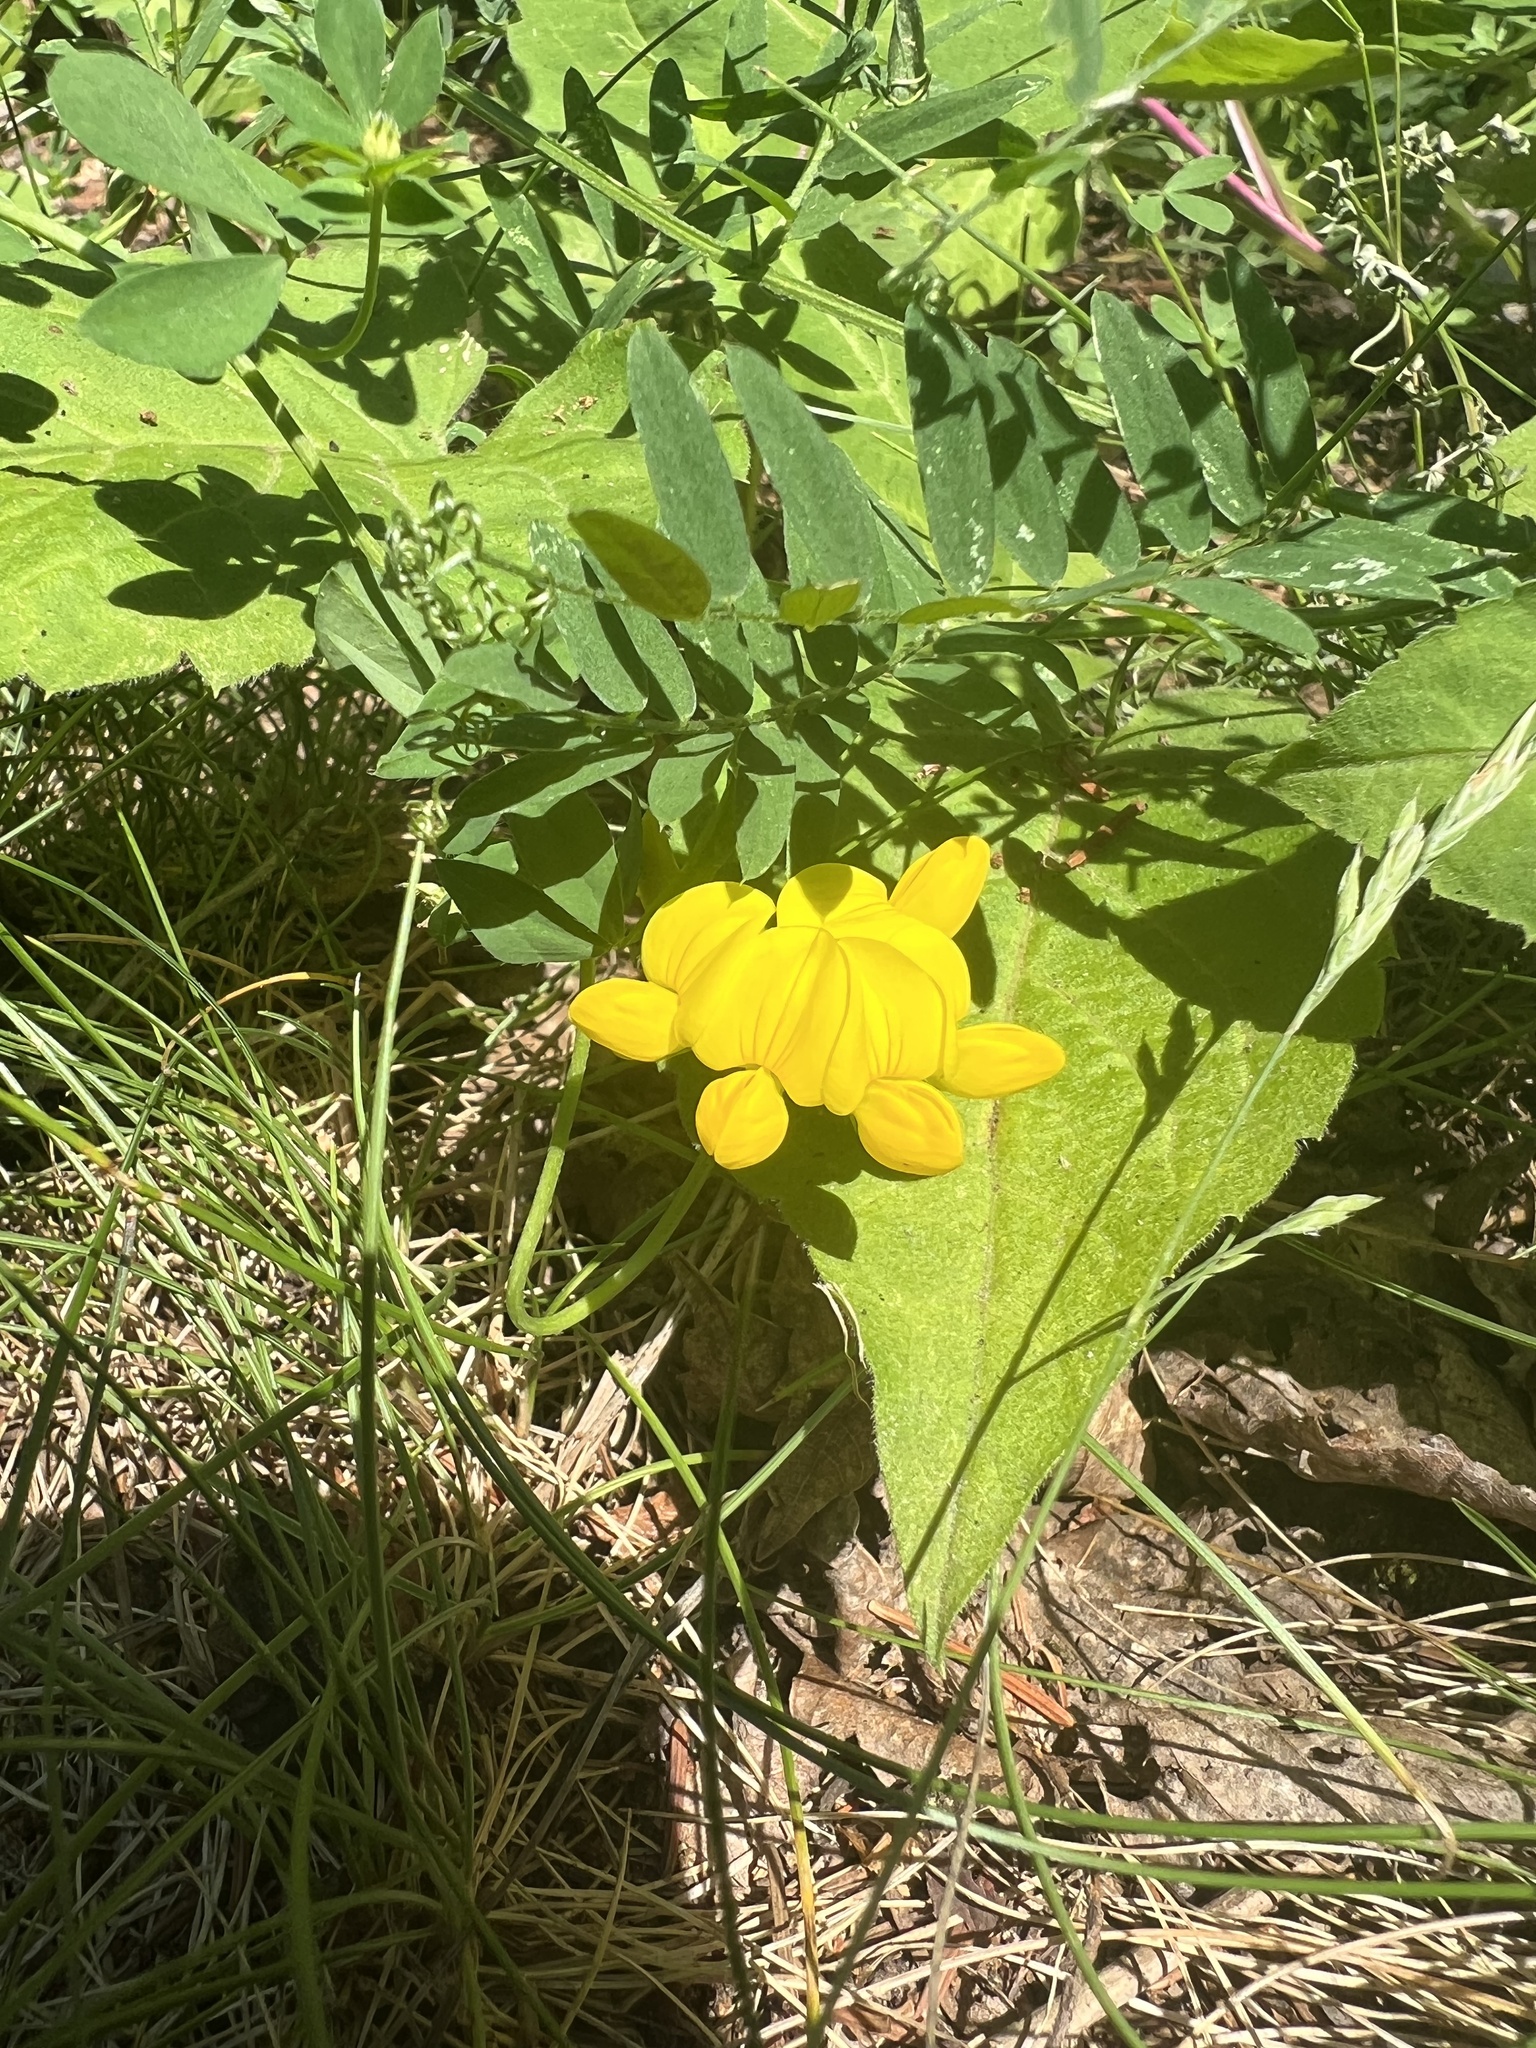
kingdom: Plantae
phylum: Tracheophyta
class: Magnoliopsida
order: Fabales
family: Fabaceae
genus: Lotus
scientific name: Lotus corniculatus
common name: Common bird's-foot-trefoil
